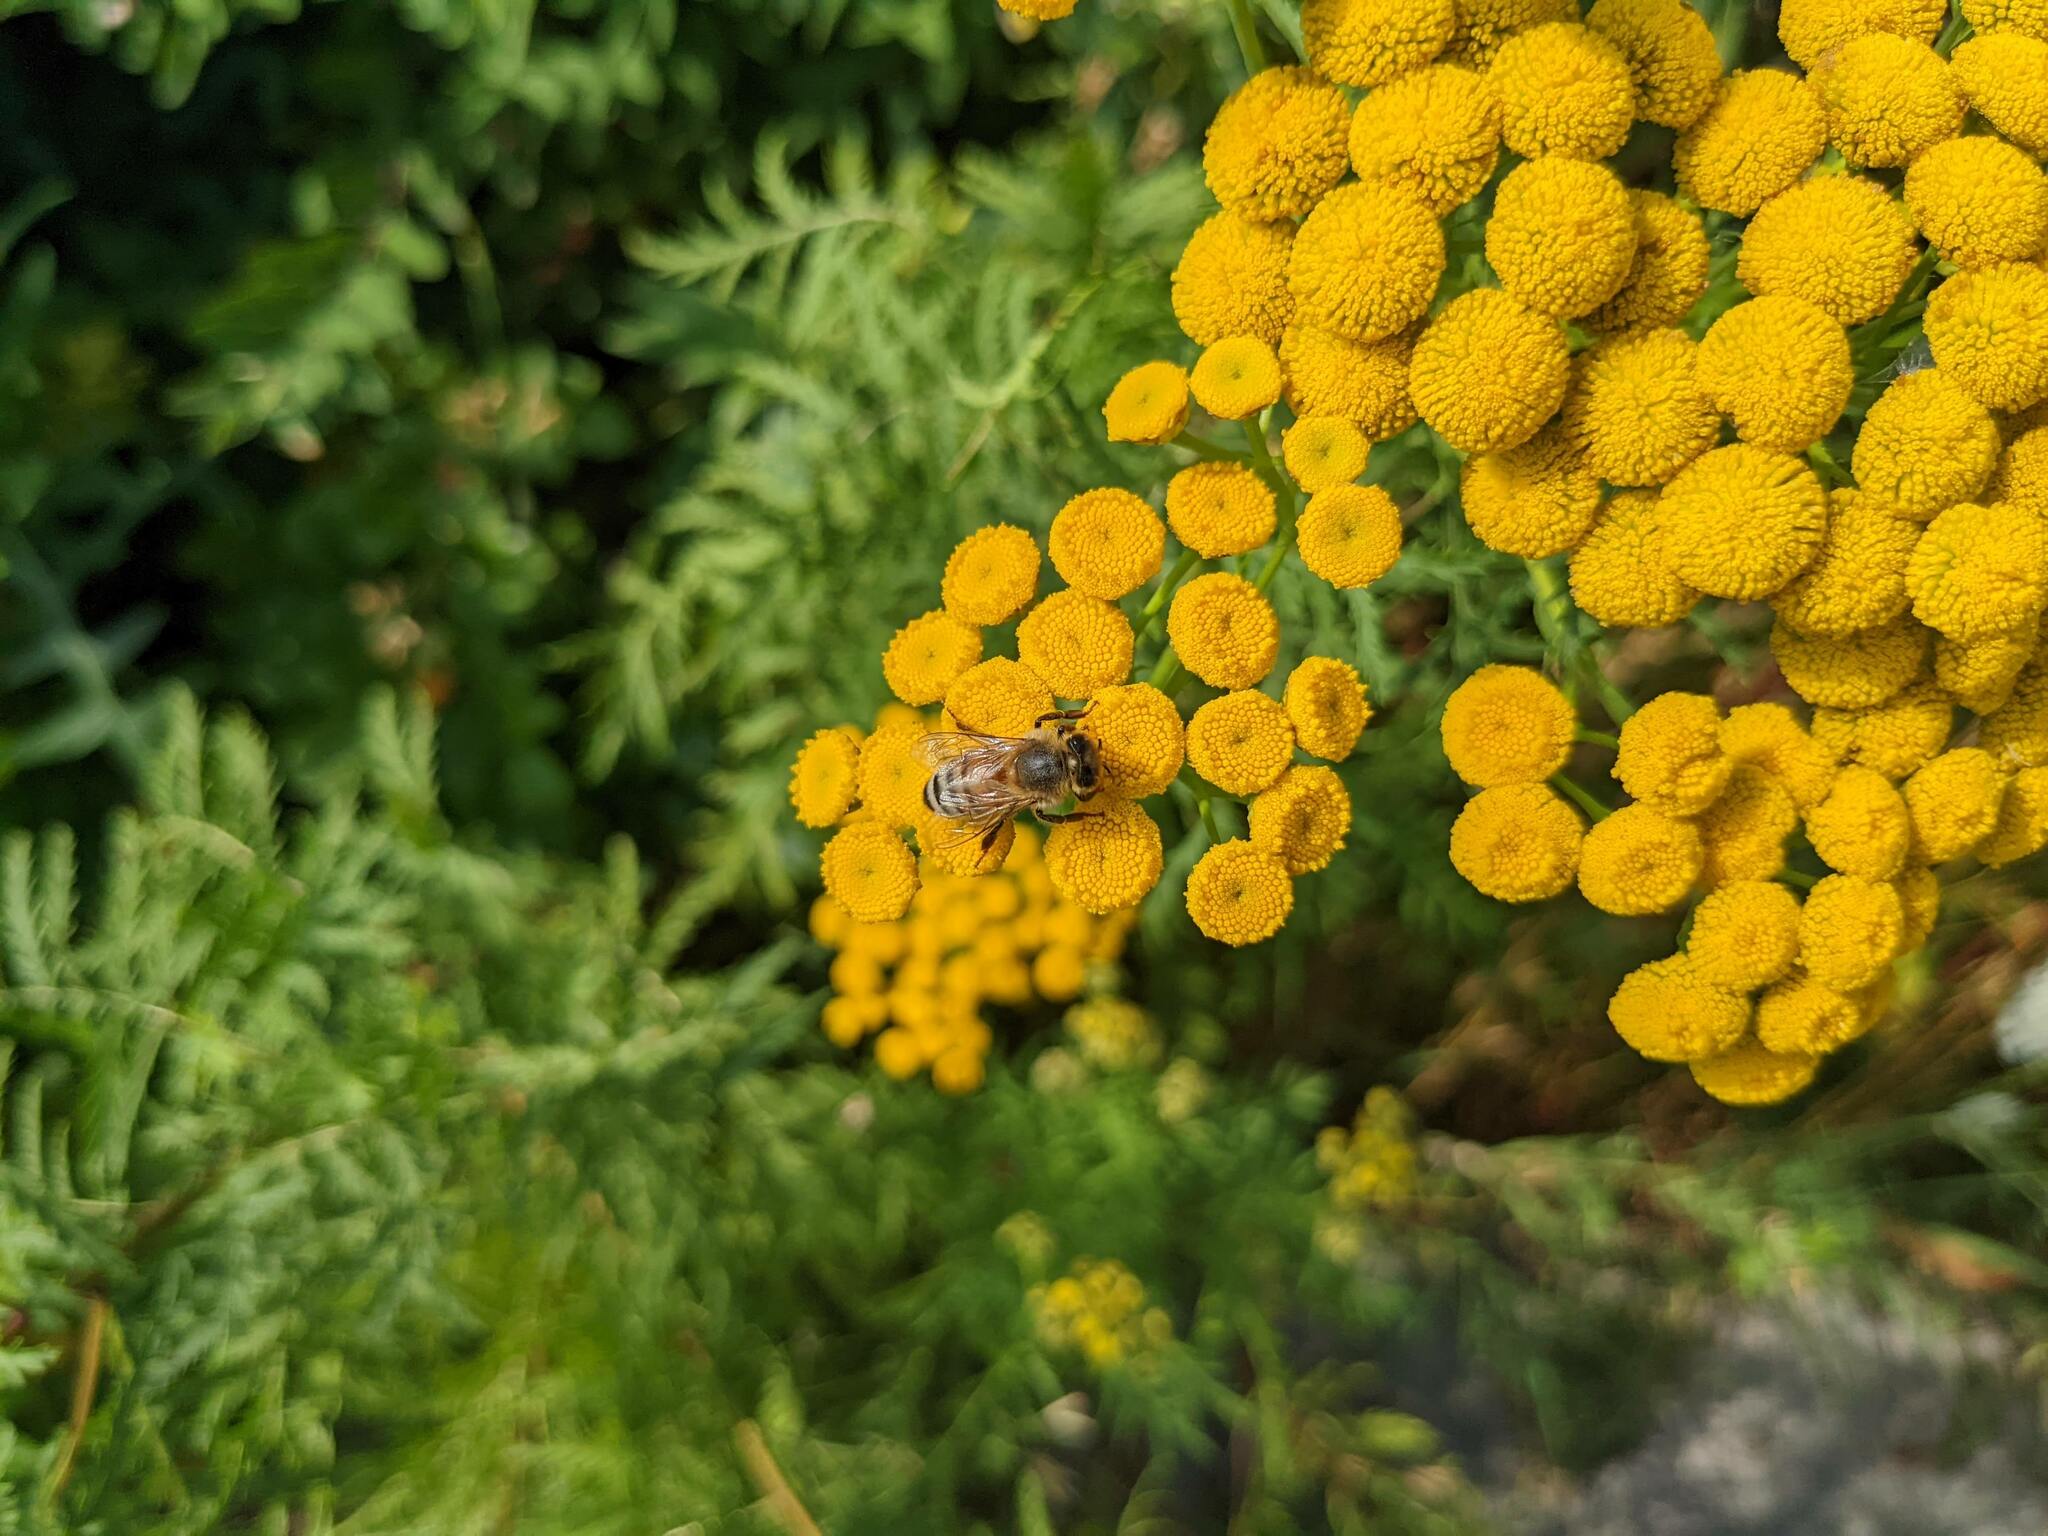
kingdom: Animalia
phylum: Arthropoda
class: Insecta
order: Hymenoptera
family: Apidae
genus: Apis
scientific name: Apis mellifera
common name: Honey bee
